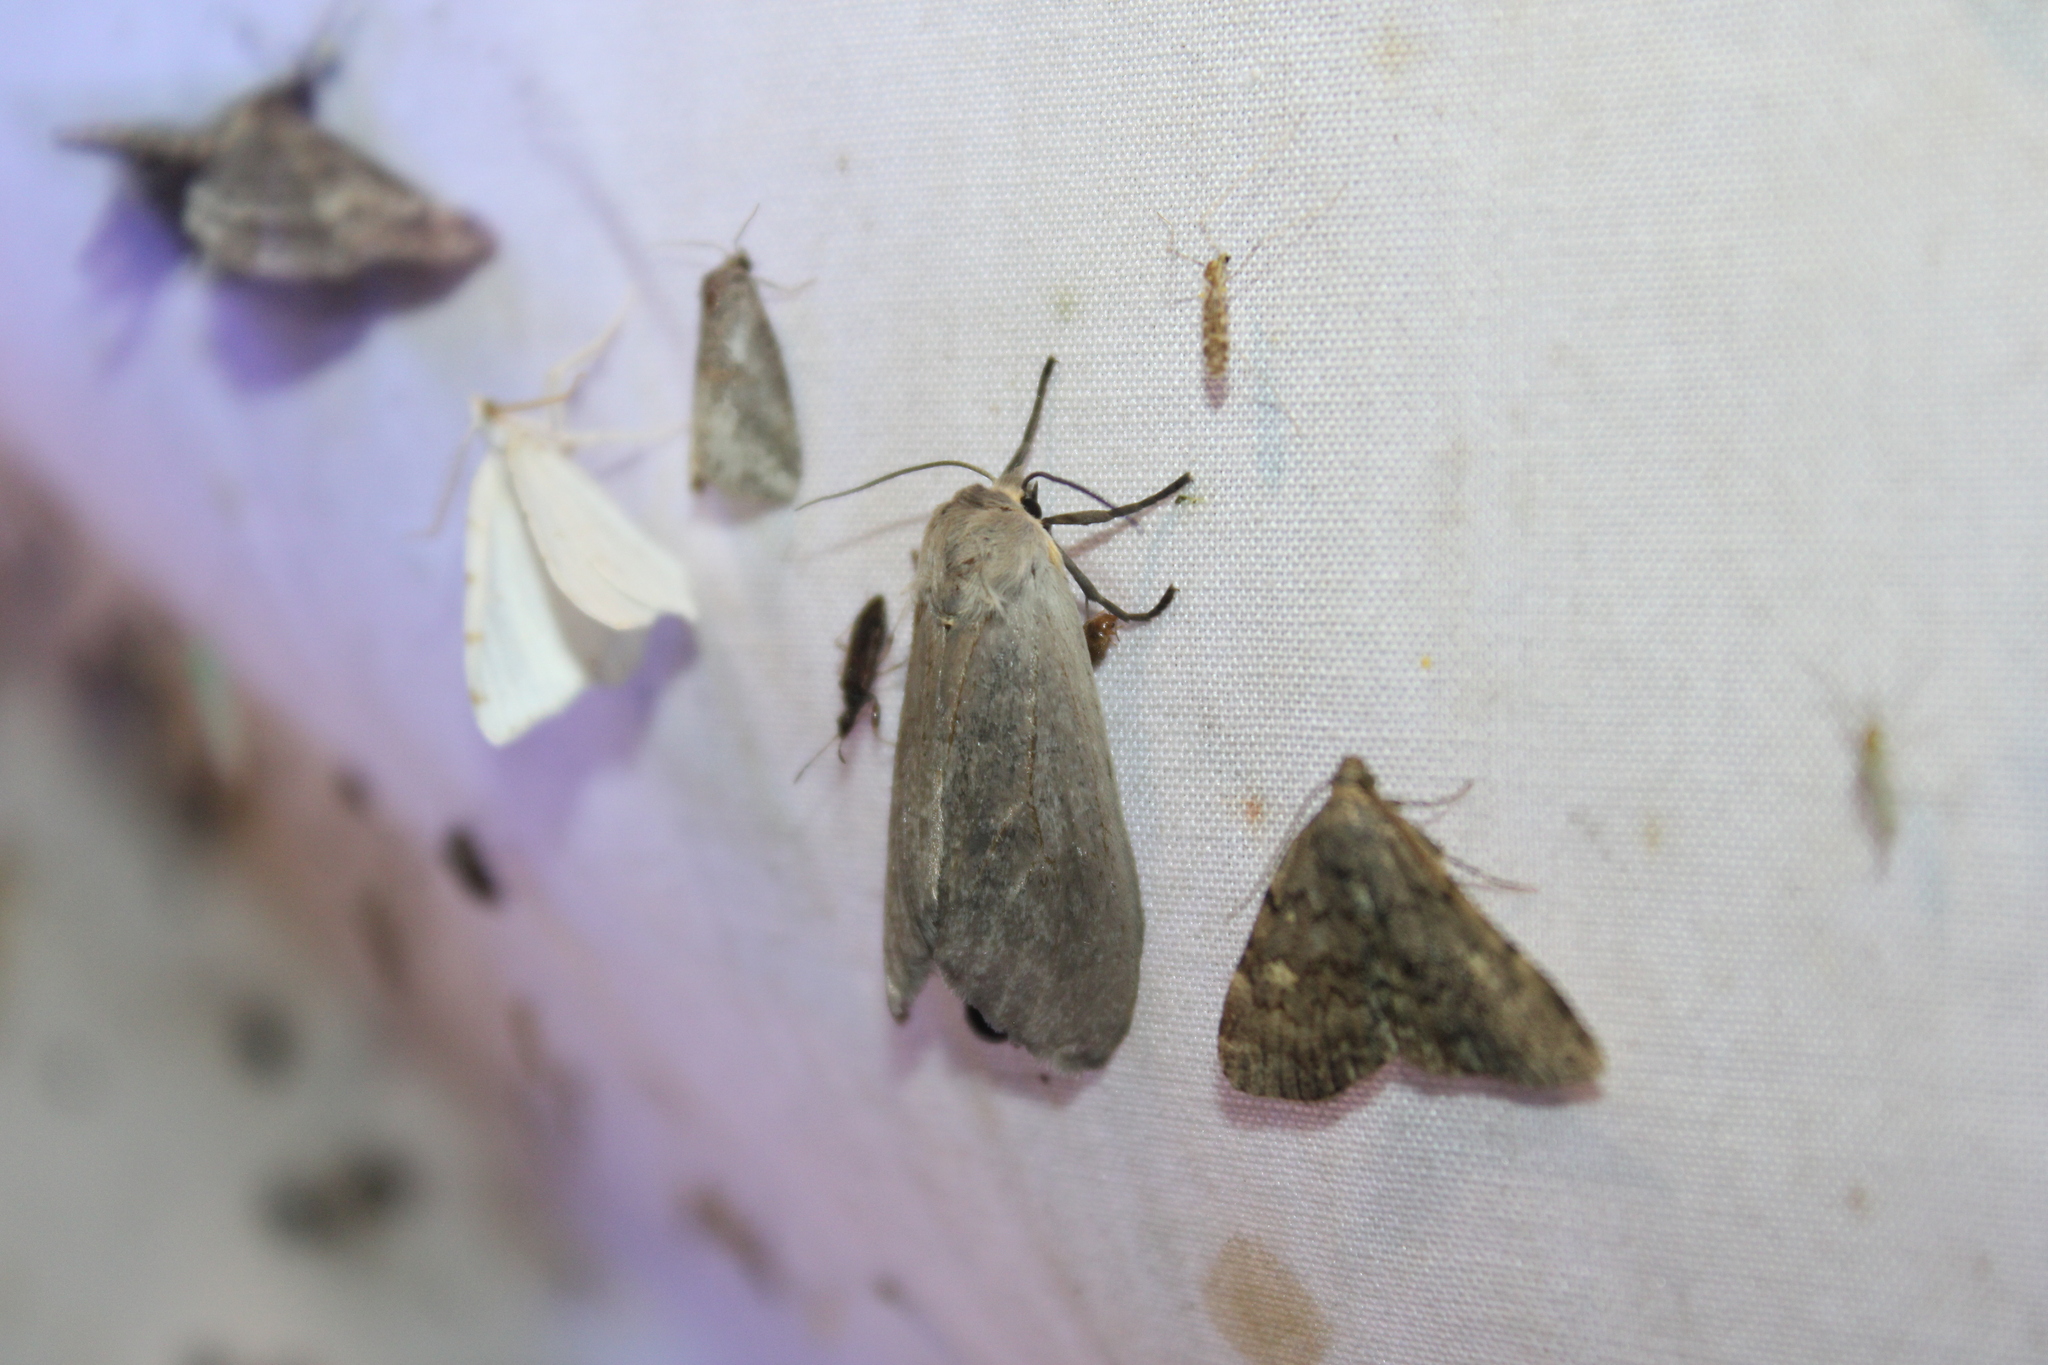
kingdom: Animalia
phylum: Arthropoda
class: Insecta
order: Lepidoptera
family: Erebidae
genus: Euchaetes
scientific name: Euchaetes egle
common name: Milkweed tussock moth
